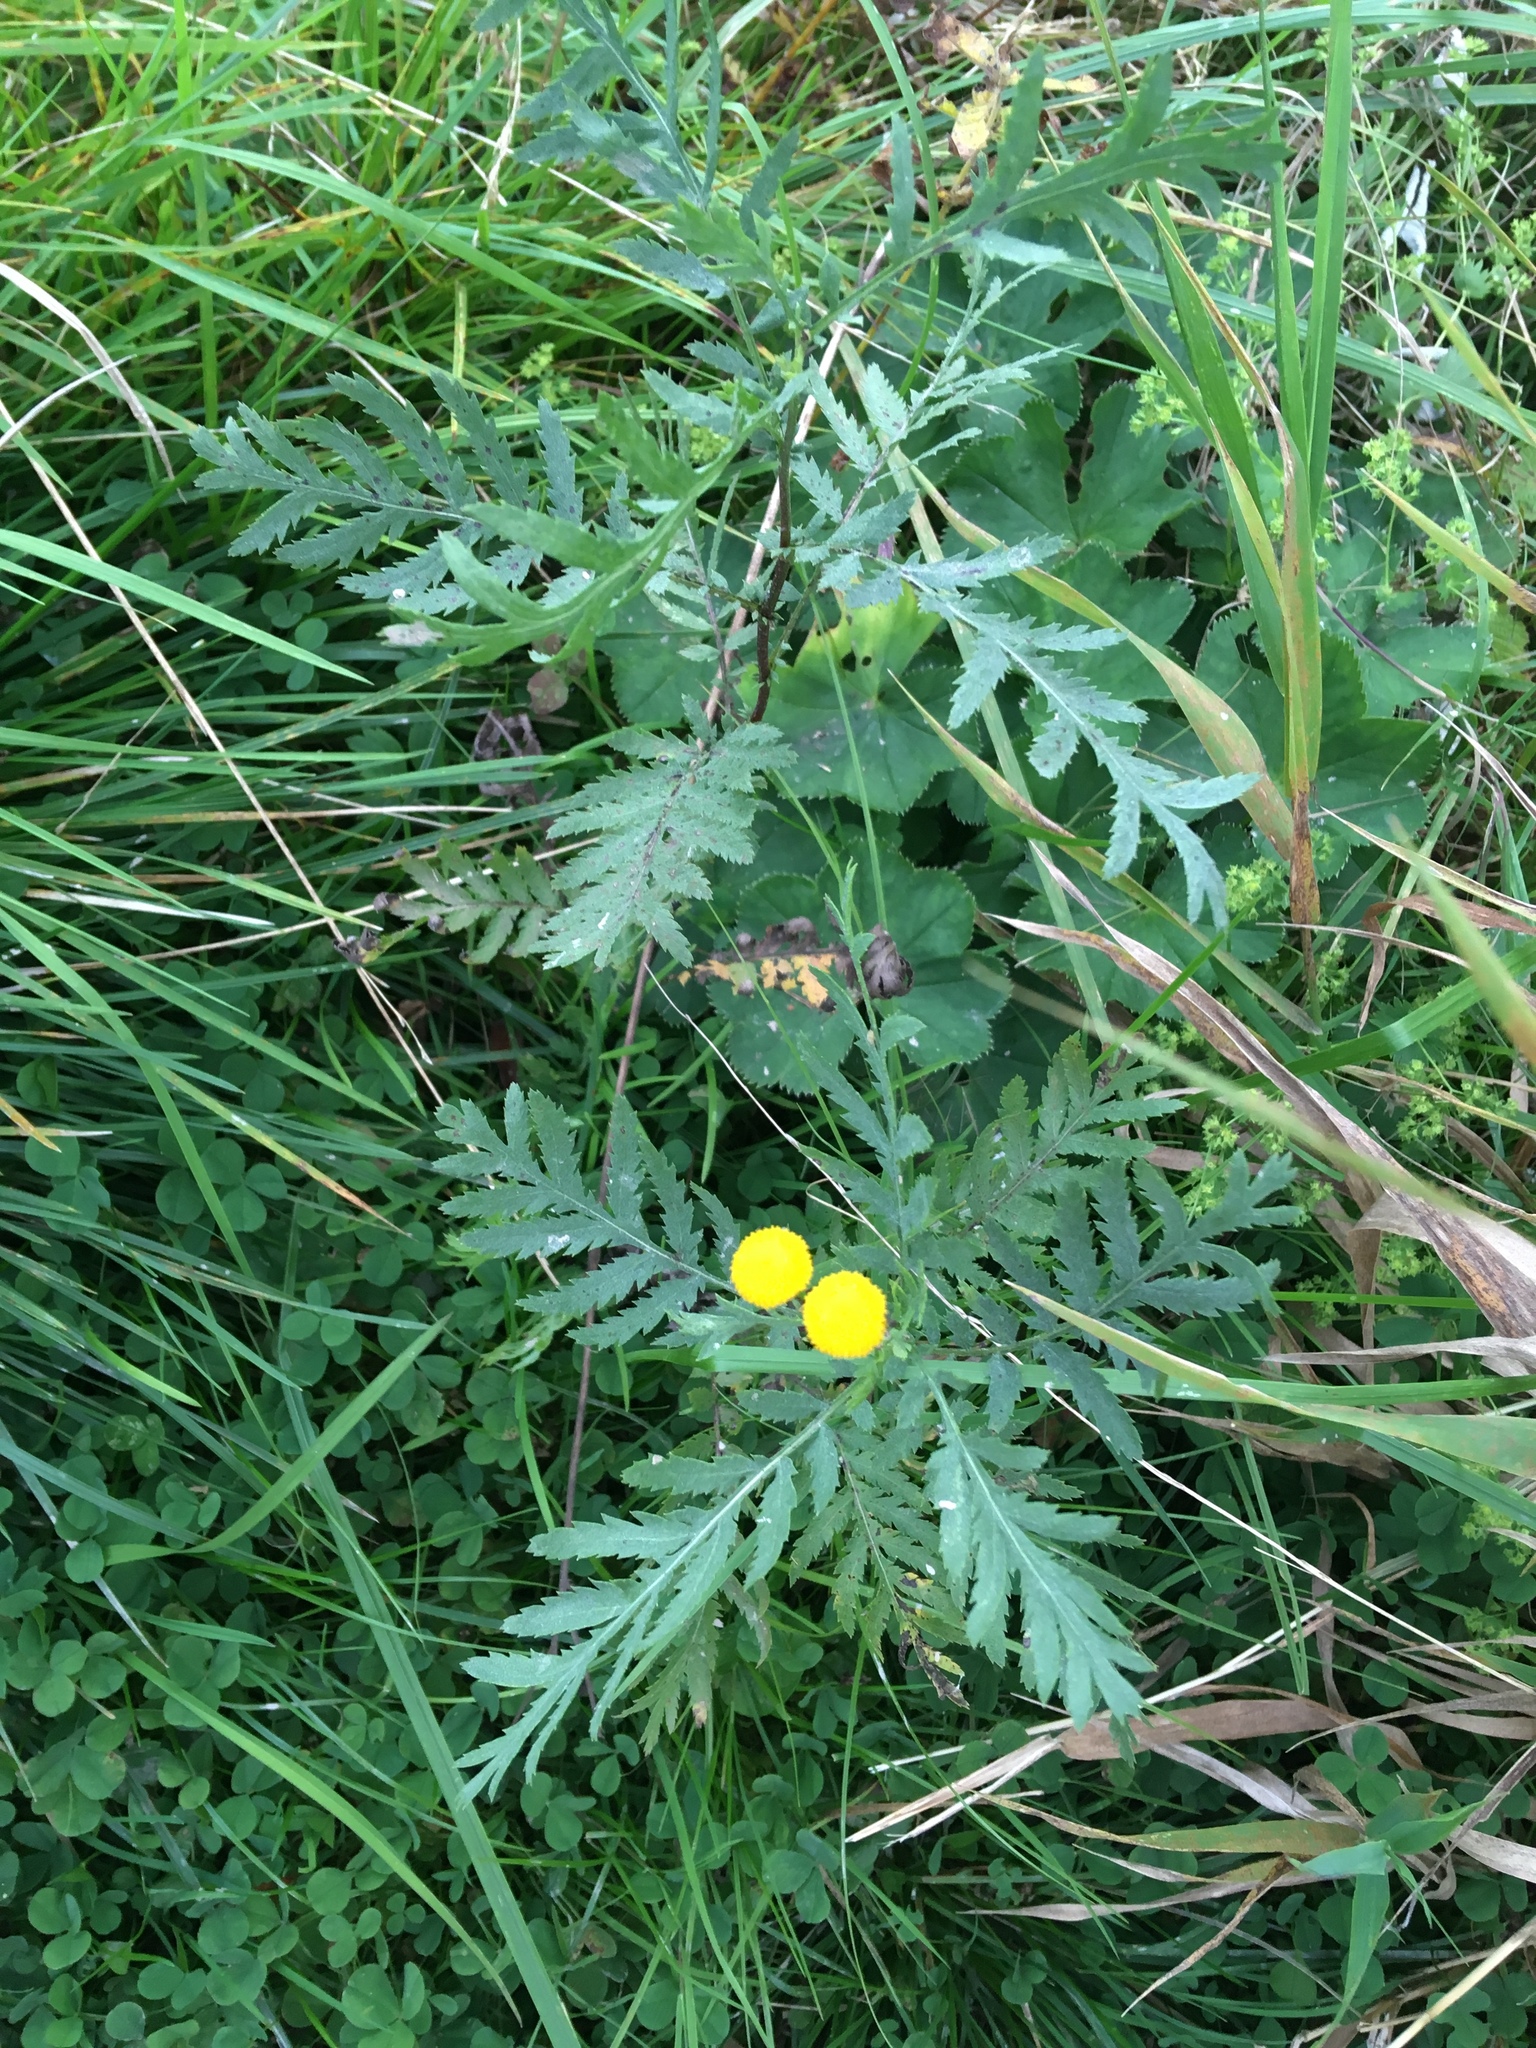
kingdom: Plantae
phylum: Tracheophyta
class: Magnoliopsida
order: Asterales
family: Asteraceae
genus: Tanacetum
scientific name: Tanacetum vulgare
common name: Common tansy
